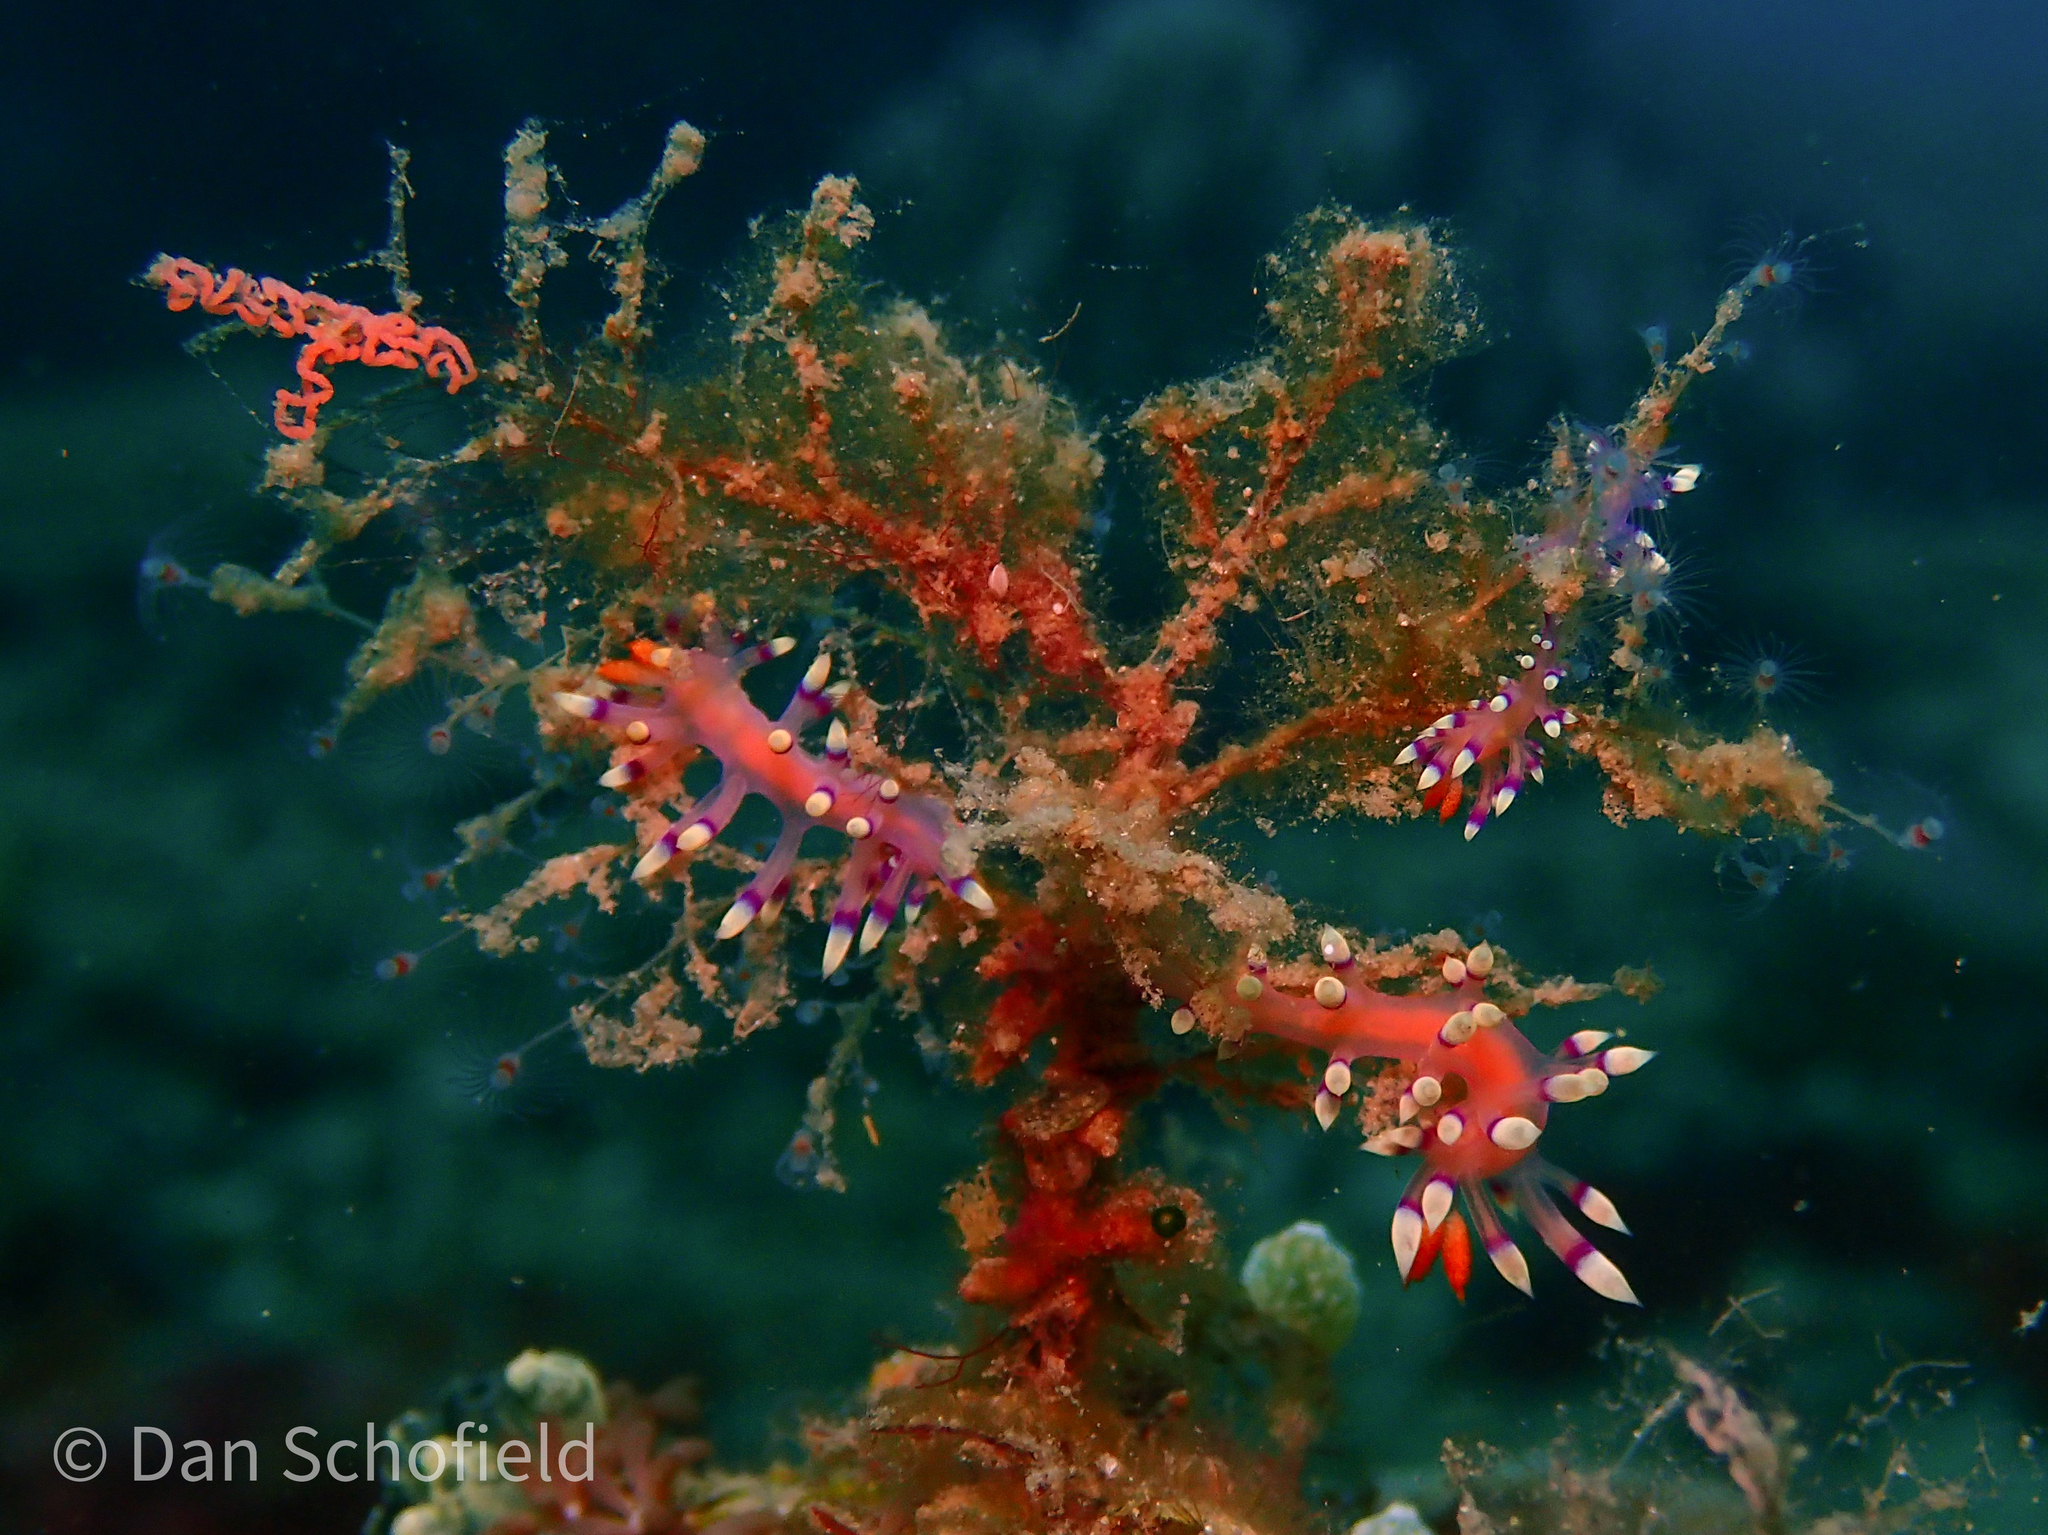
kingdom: Animalia
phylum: Mollusca
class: Gastropoda
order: Nudibranchia
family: Flabellinidae
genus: Coryphellina
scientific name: Coryphellina exoptata
